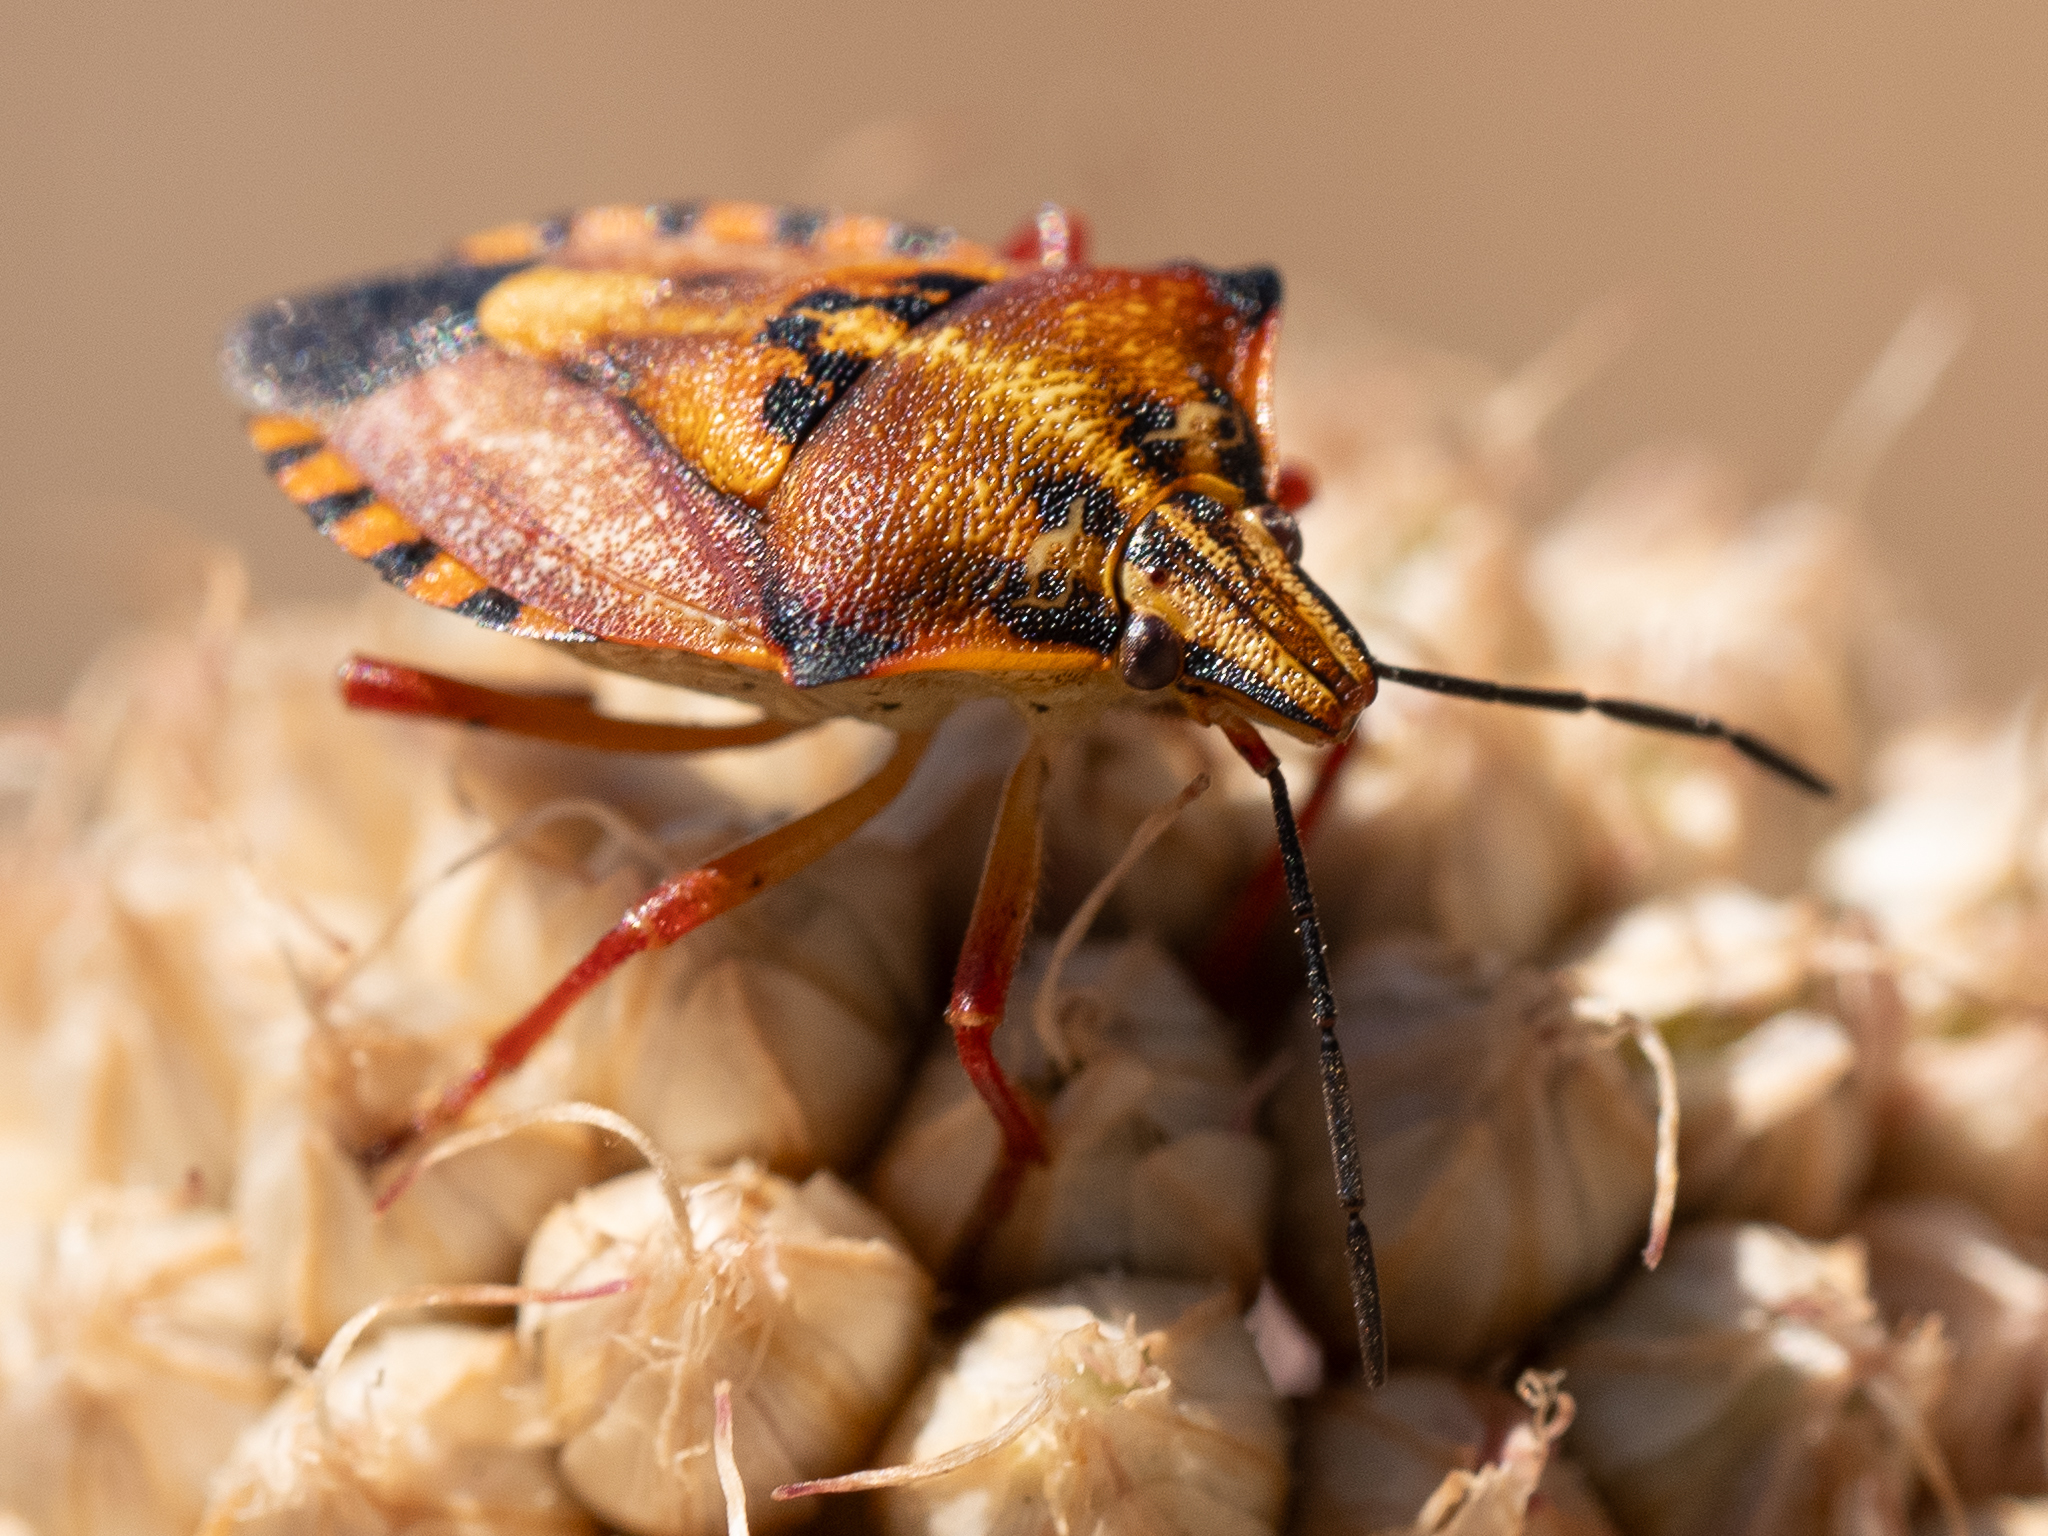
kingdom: Animalia
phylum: Arthropoda
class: Insecta
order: Hemiptera
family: Pentatomidae
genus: Carpocoris
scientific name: Carpocoris mediterraneus
